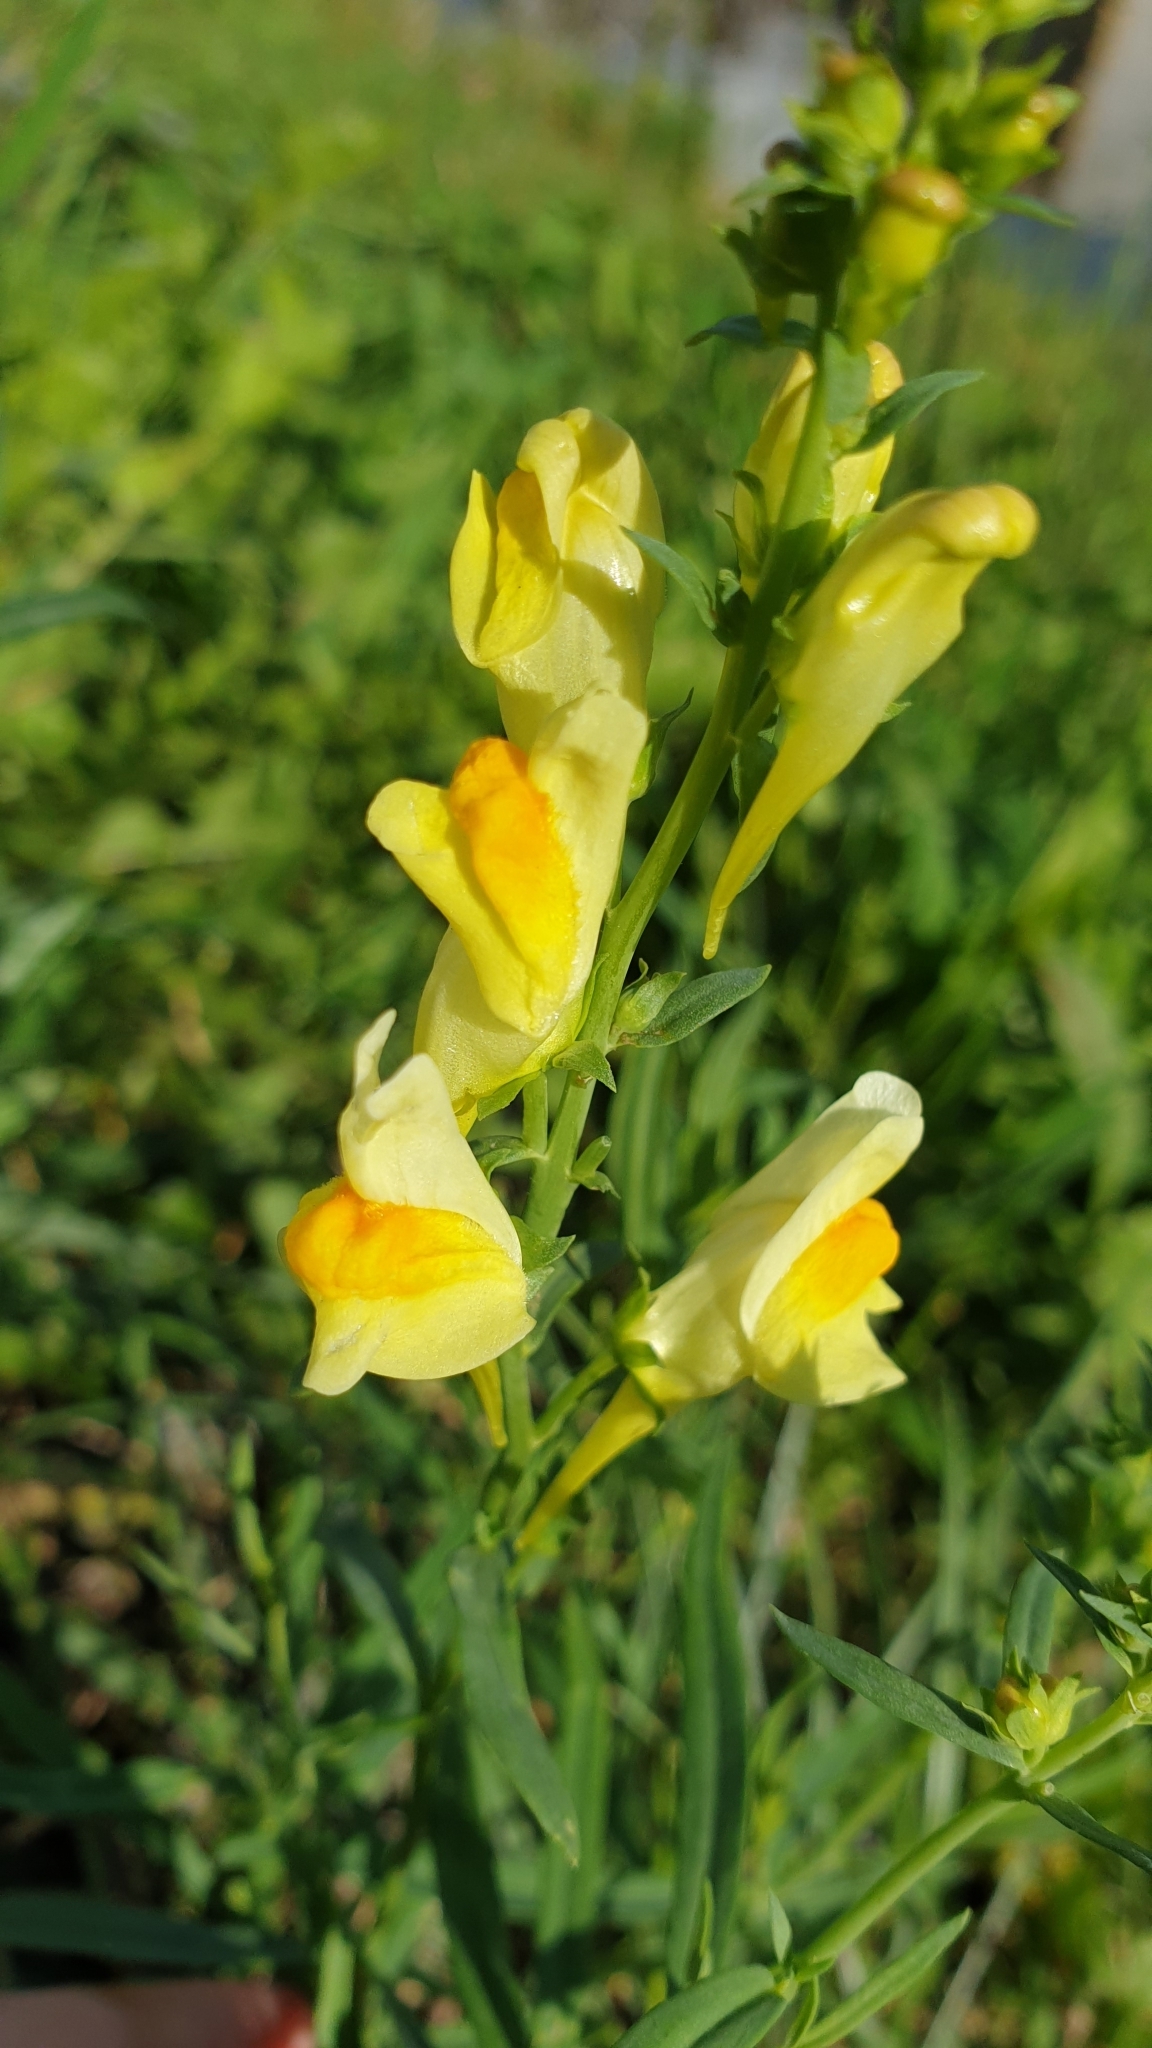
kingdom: Plantae
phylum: Tracheophyta
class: Magnoliopsida
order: Lamiales
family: Plantaginaceae
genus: Linaria
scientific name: Linaria vulgaris
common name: Butter and eggs
